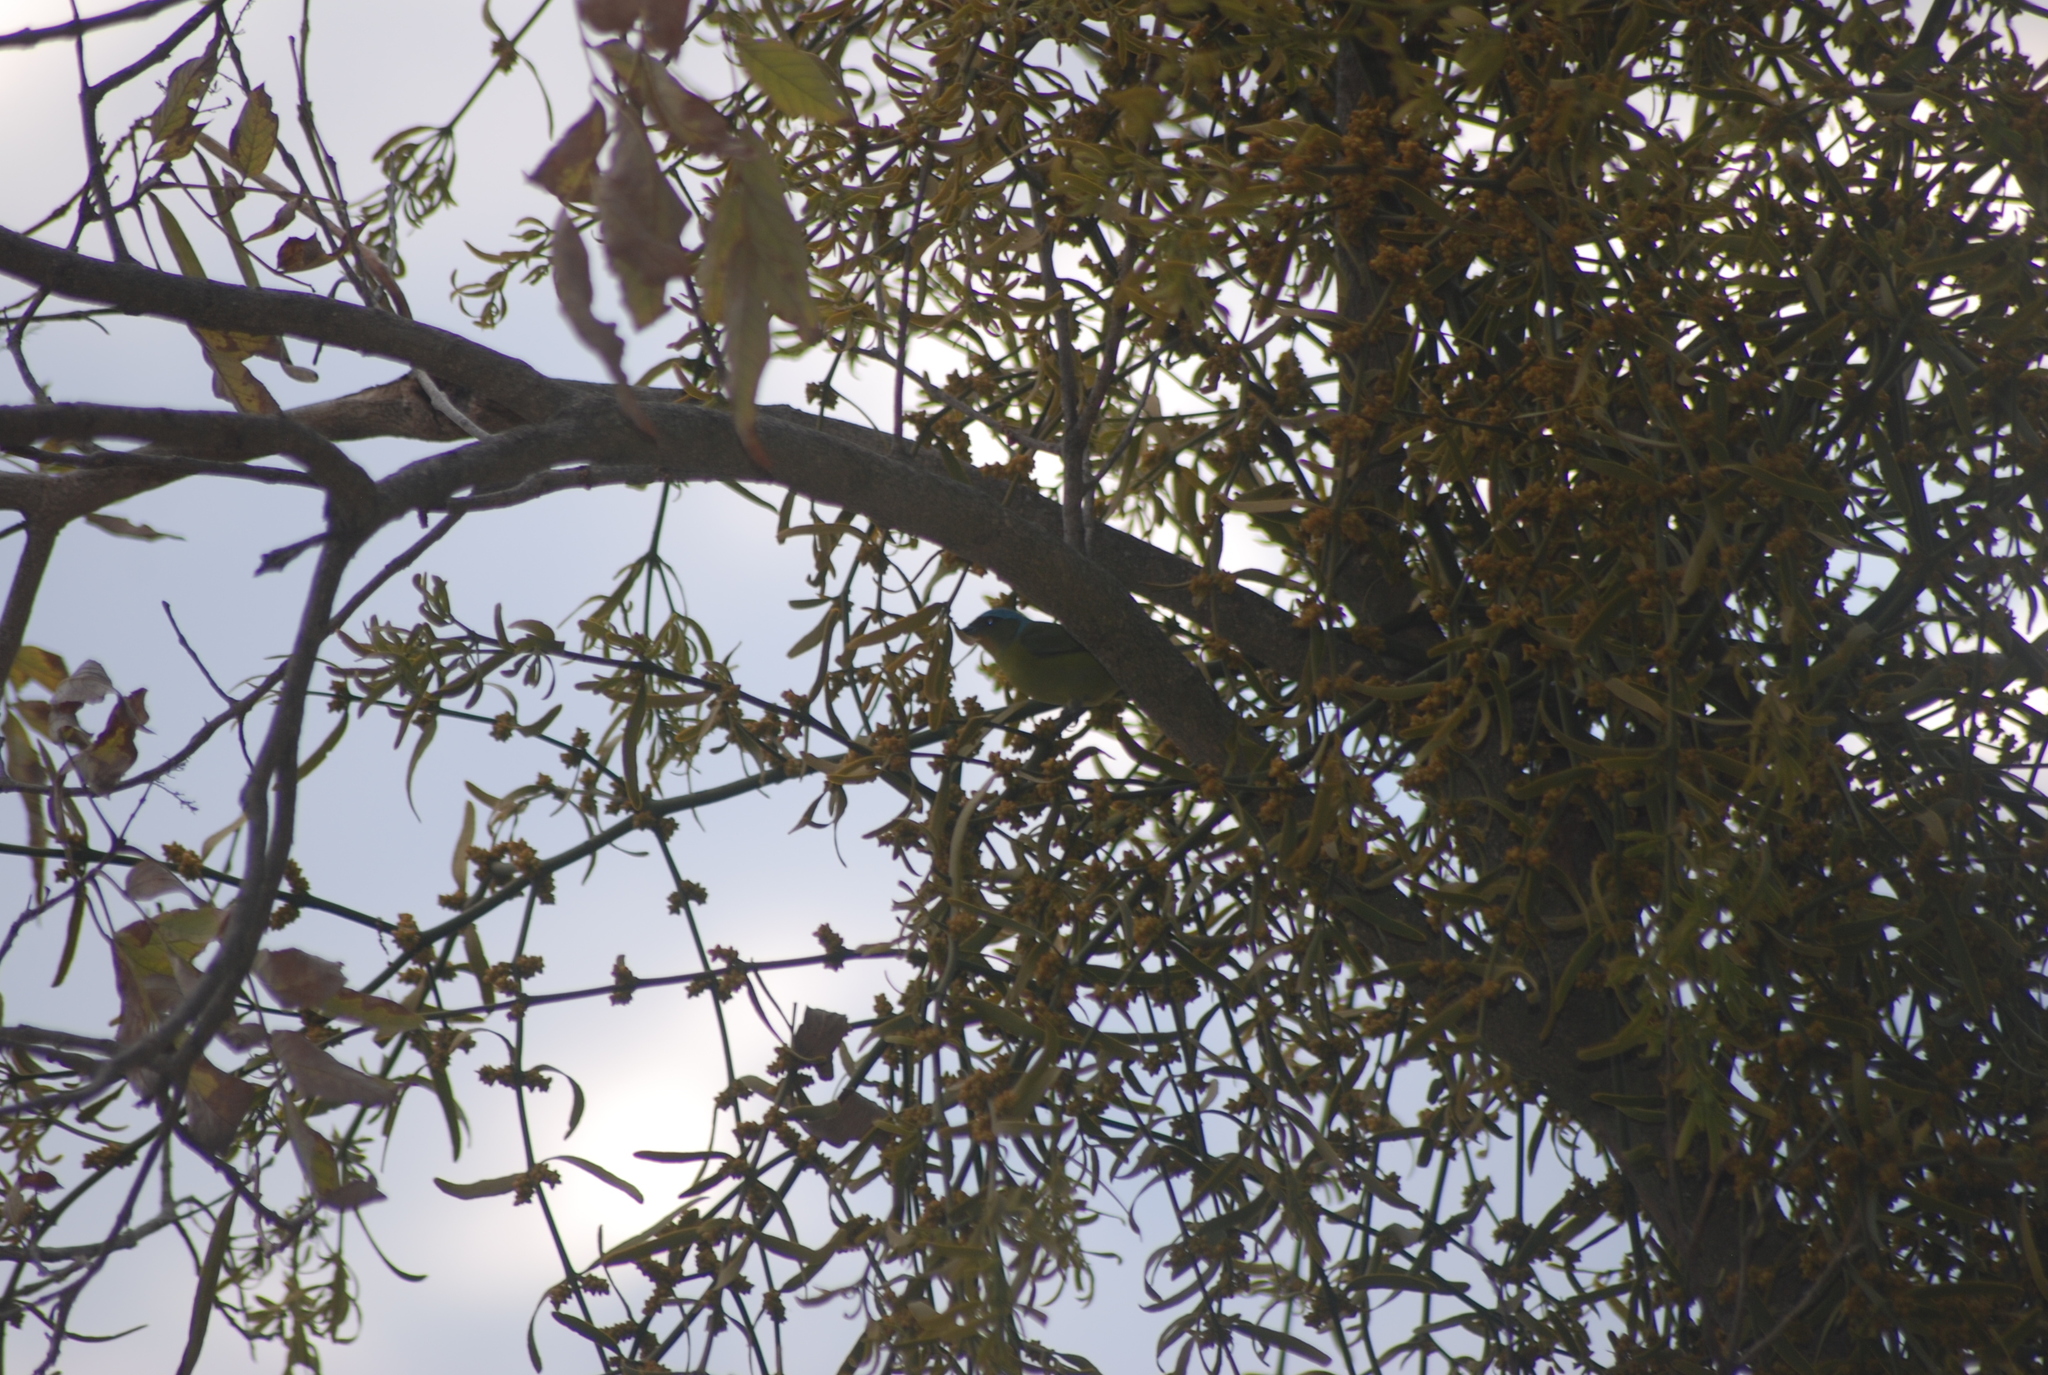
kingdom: Animalia
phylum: Chordata
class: Aves
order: Passeriformes
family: Fringillidae
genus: Euphonia
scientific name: Euphonia elegantissima
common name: Elegant euphonia
